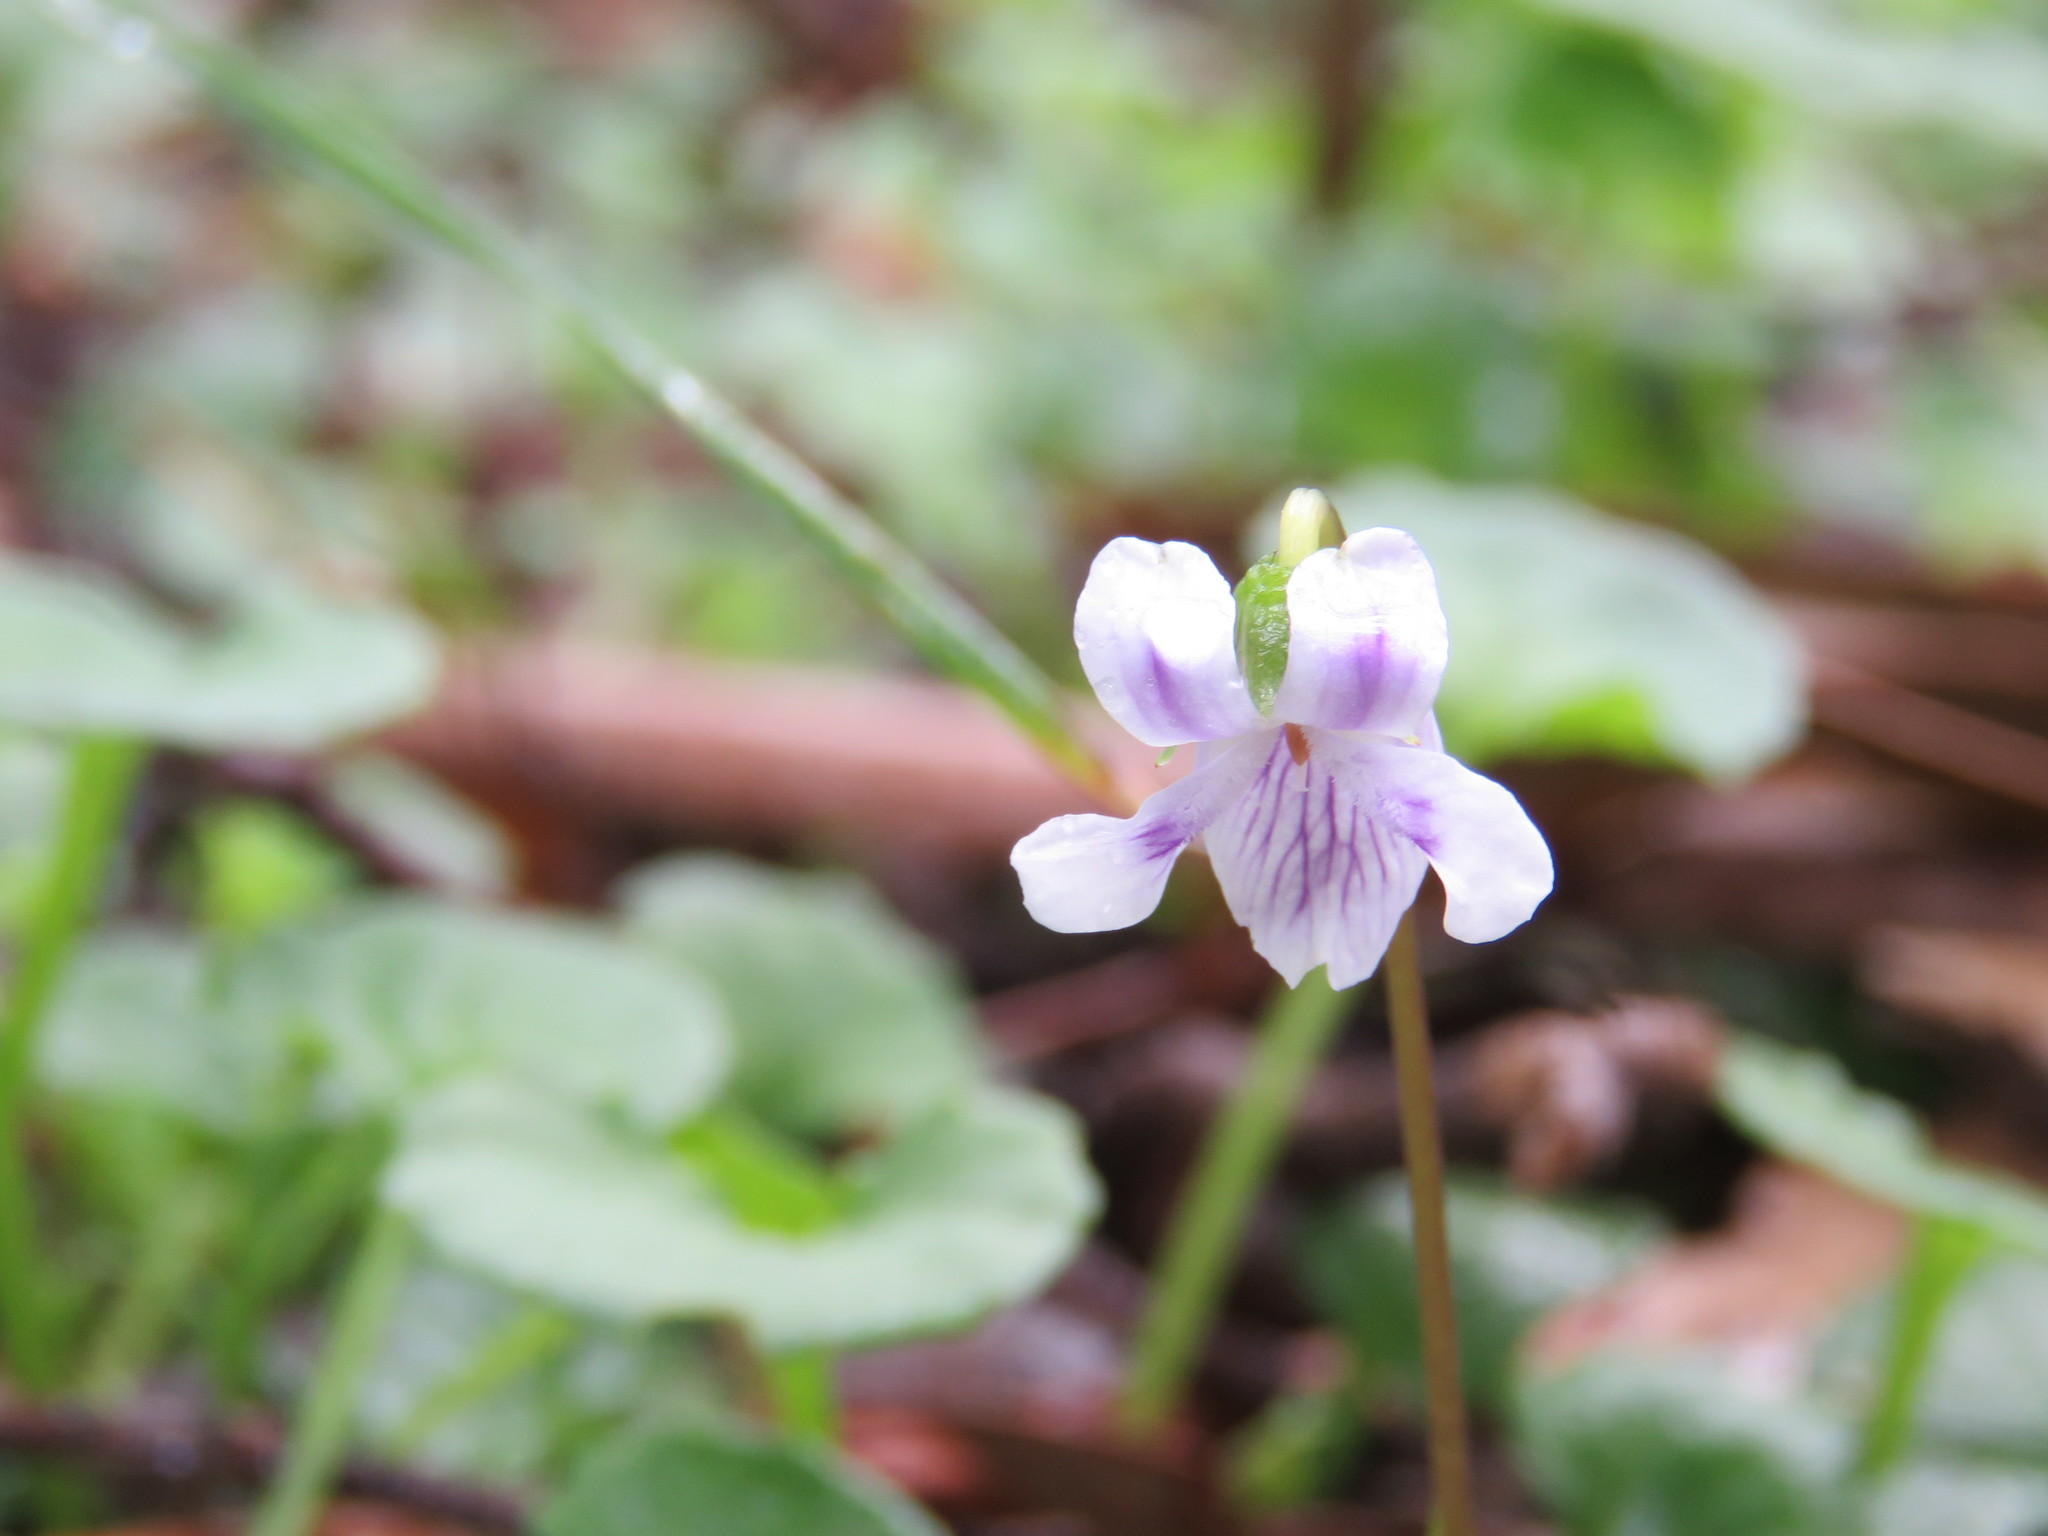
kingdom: Plantae
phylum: Tracheophyta
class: Magnoliopsida
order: Malpighiales
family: Violaceae
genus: Viola
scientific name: Viola hederacea
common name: Australian violet
